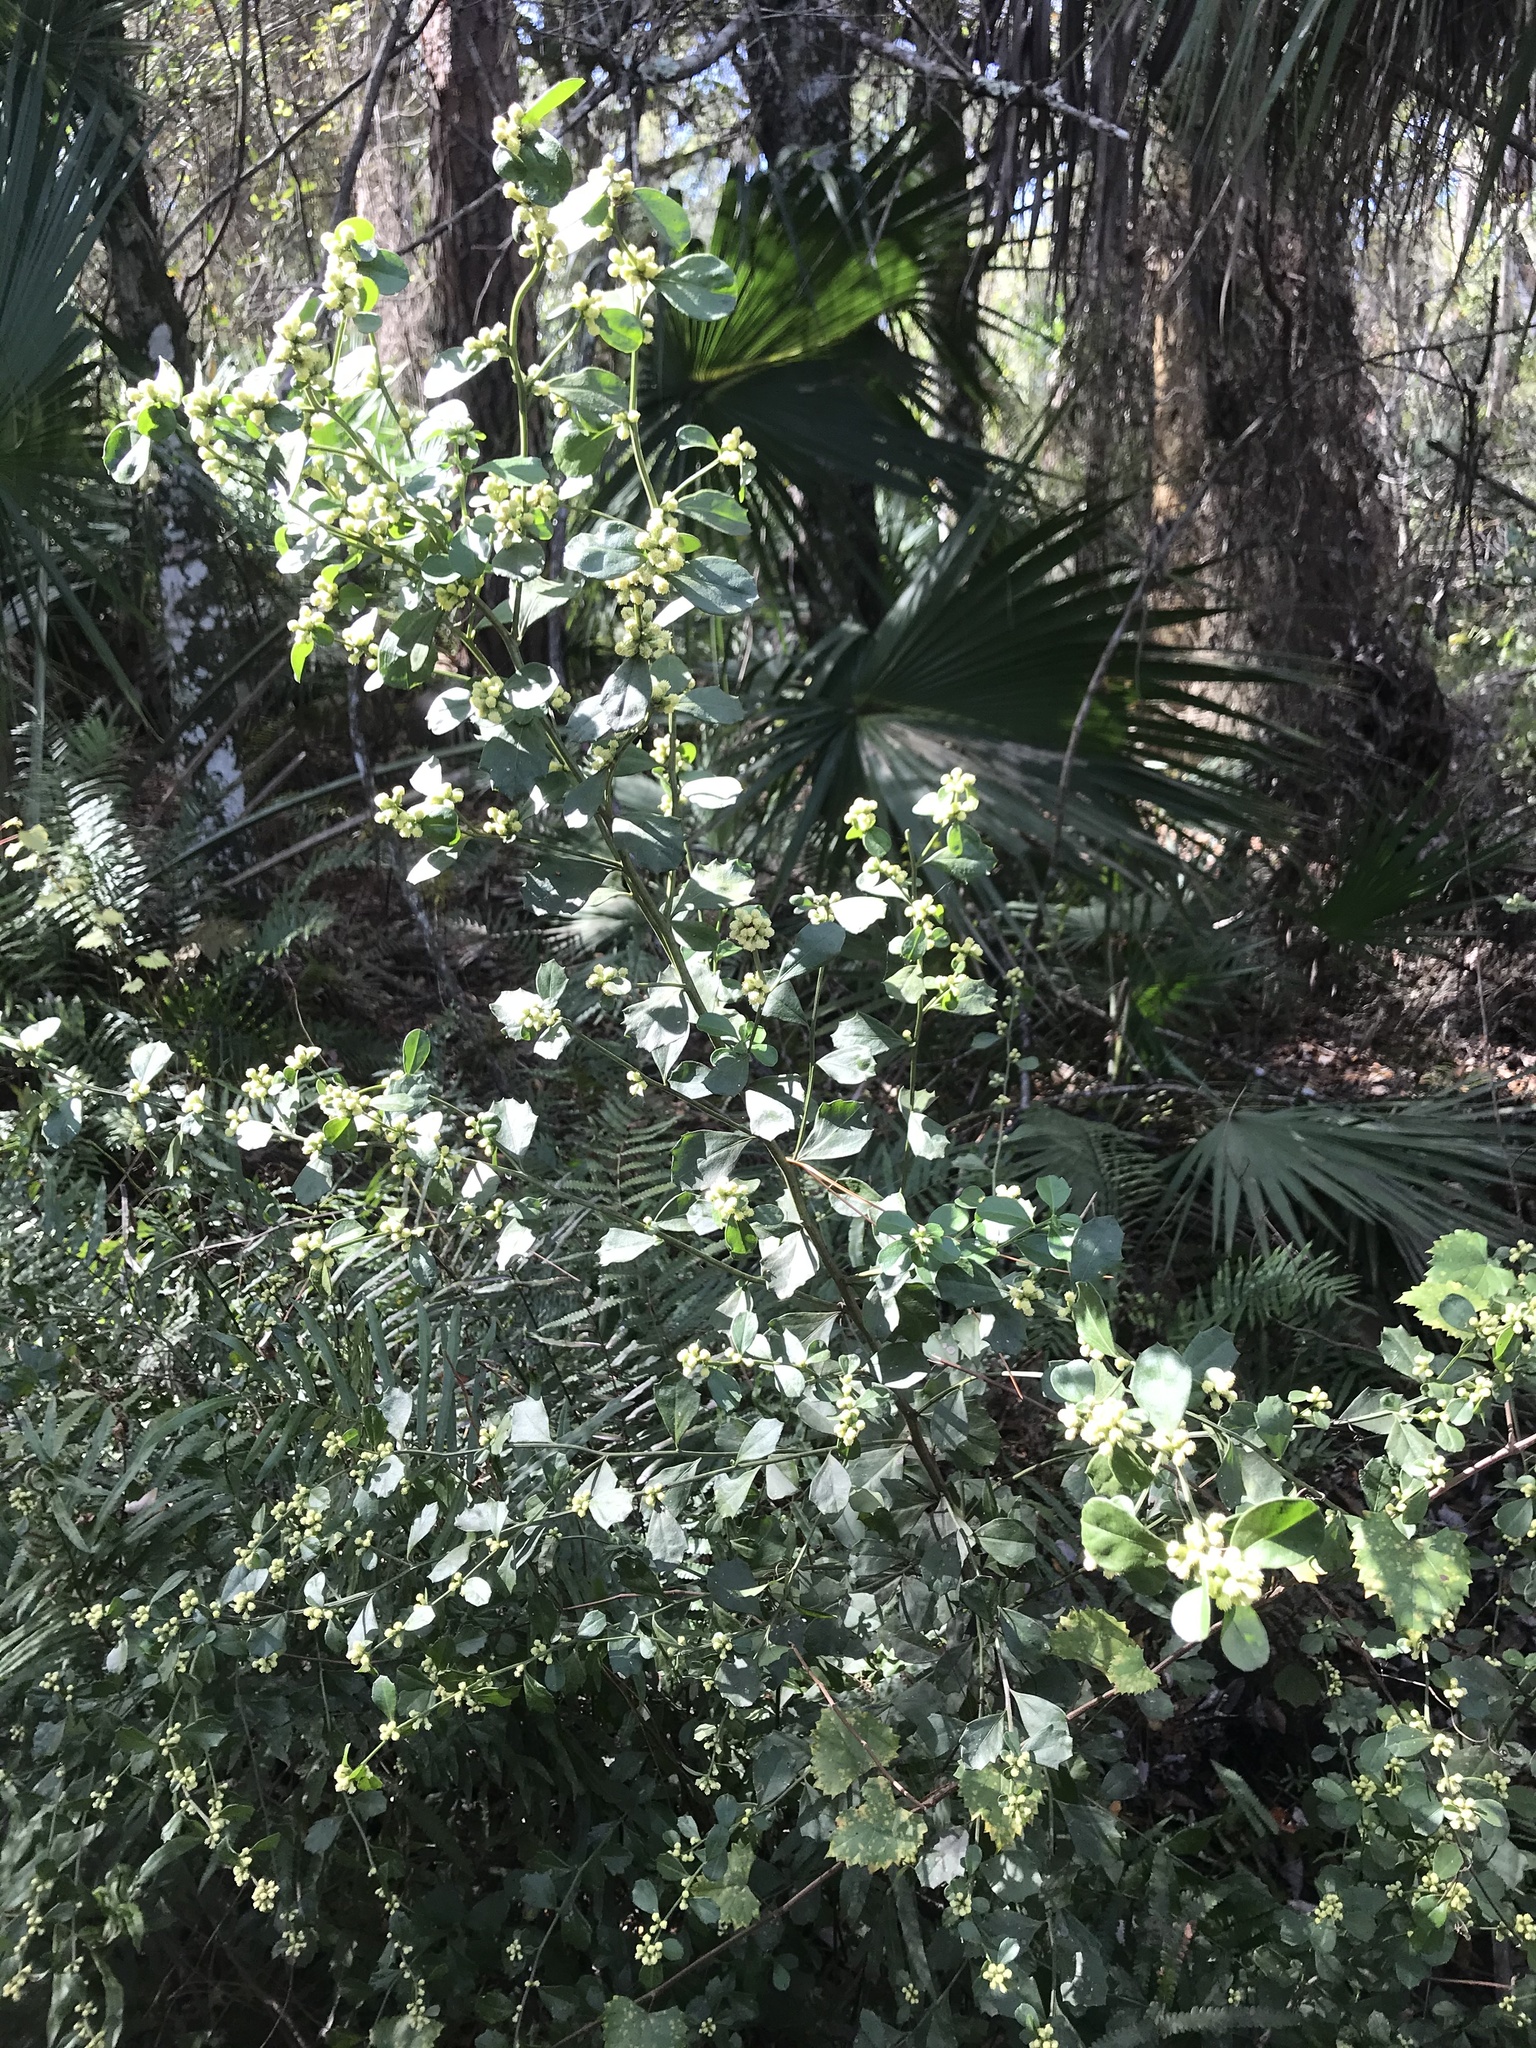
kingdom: Plantae
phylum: Tracheophyta
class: Magnoliopsida
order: Asterales
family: Asteraceae
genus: Baccharis
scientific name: Baccharis glomeruliflora
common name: Silverling groundsel bush
